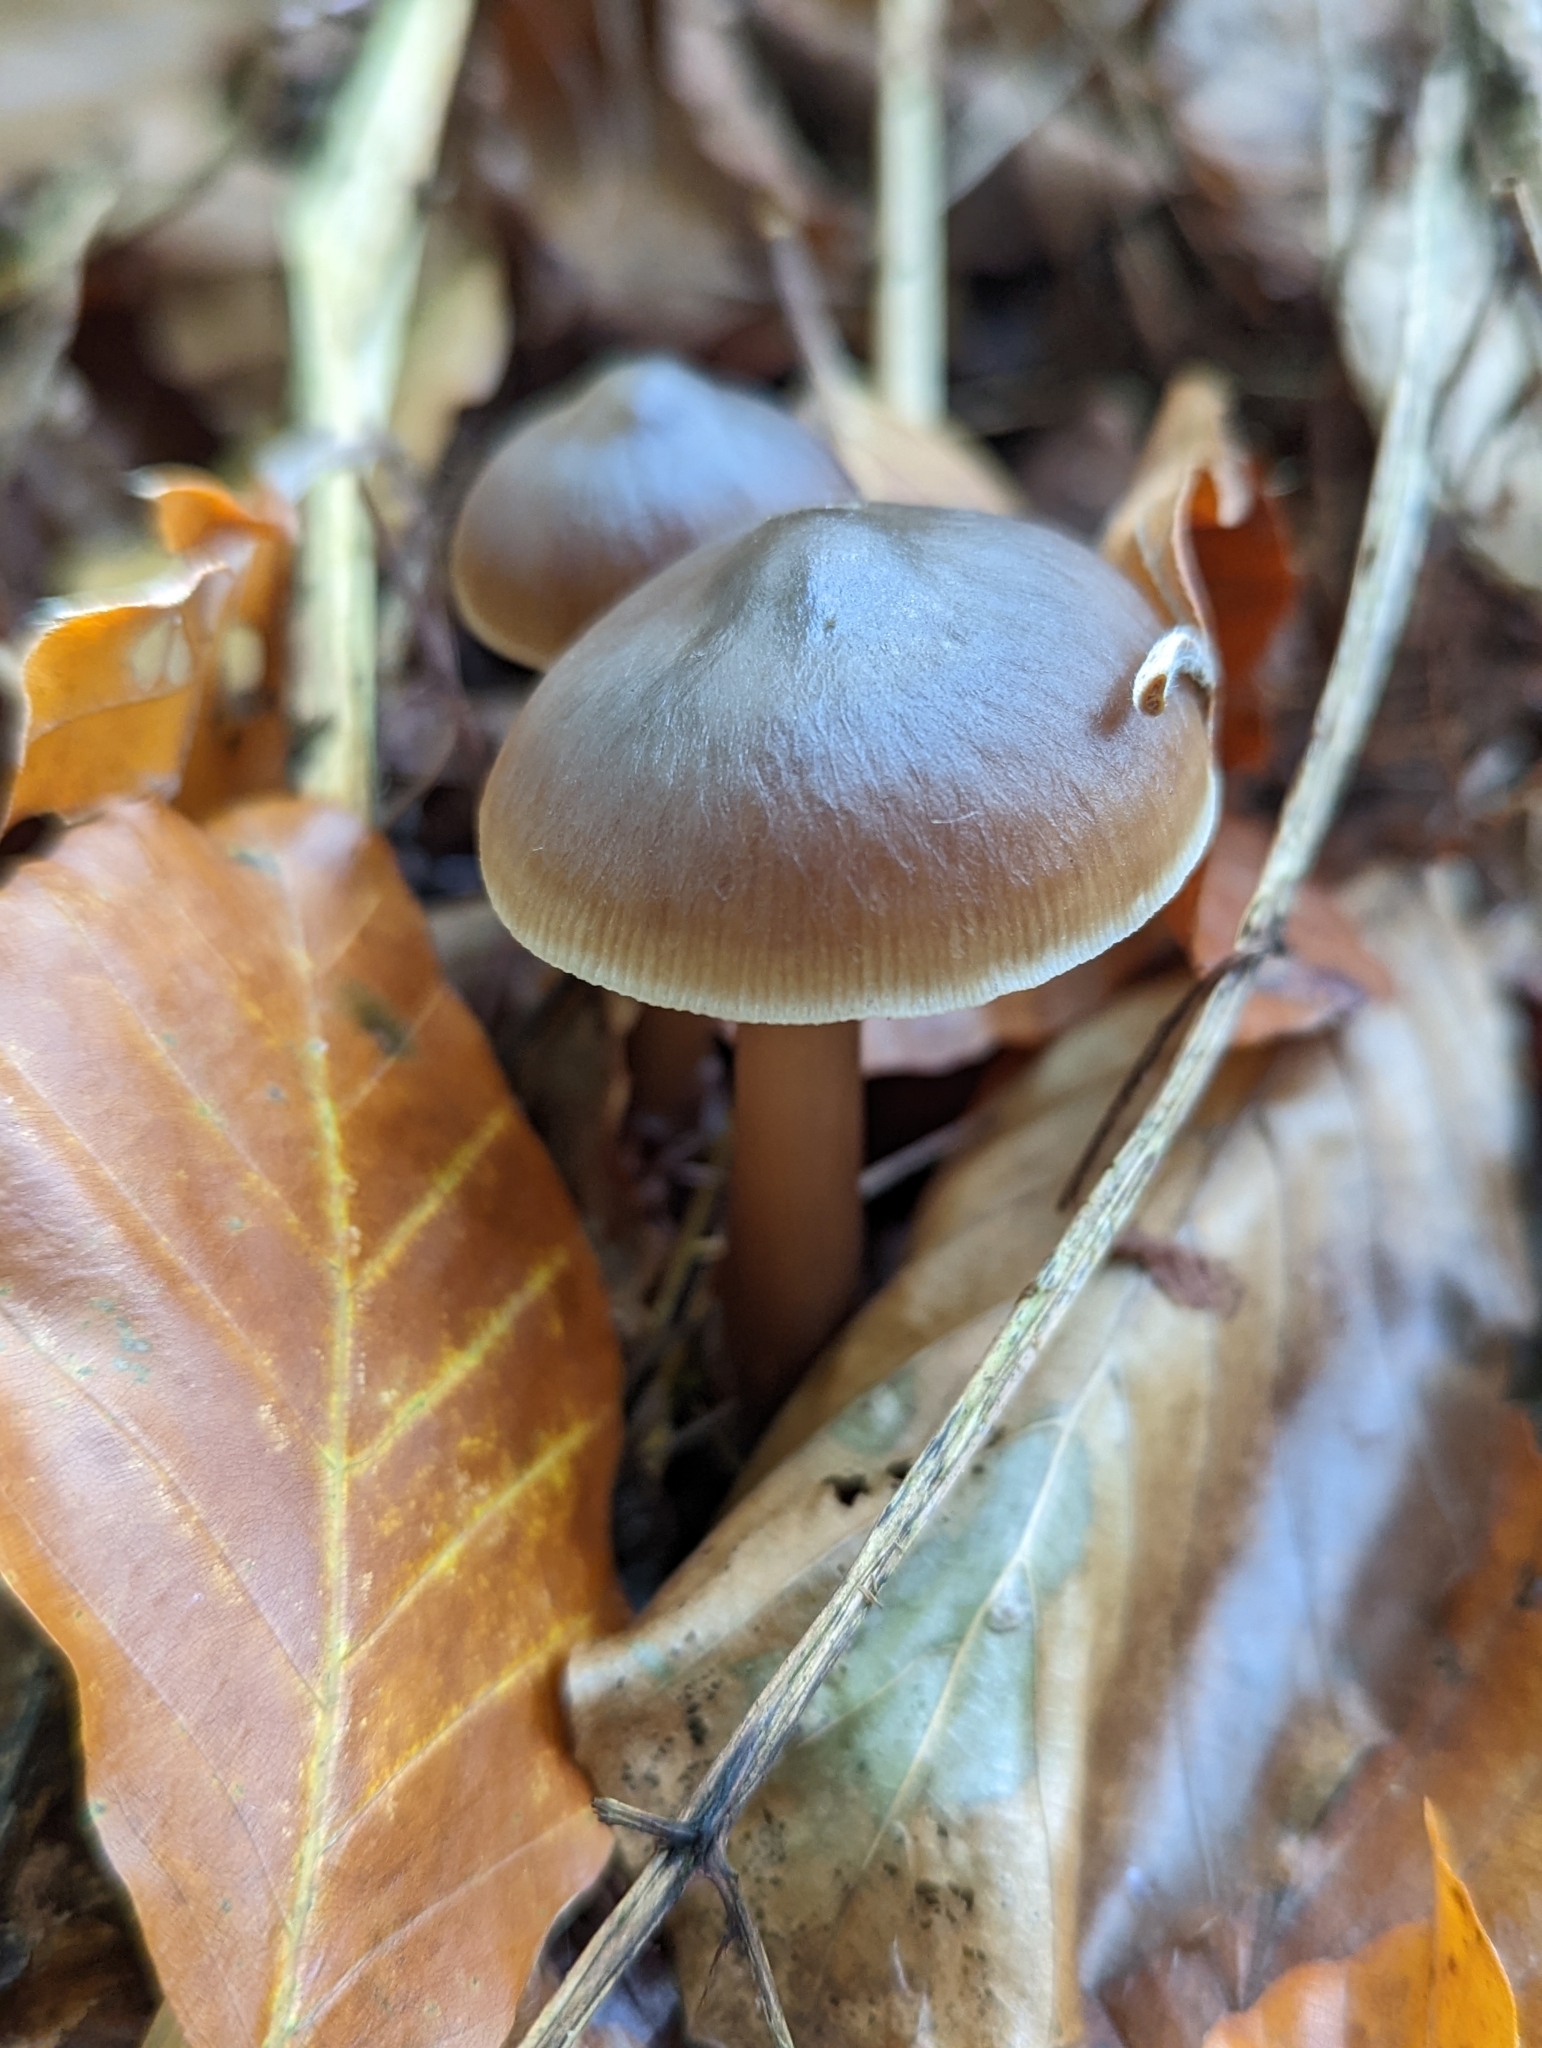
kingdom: Fungi
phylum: Basidiomycota
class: Agaricomycetes
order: Agaricales
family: Omphalotaceae
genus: Rhodocollybia
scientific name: Rhodocollybia butyracea
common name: Butter cap
